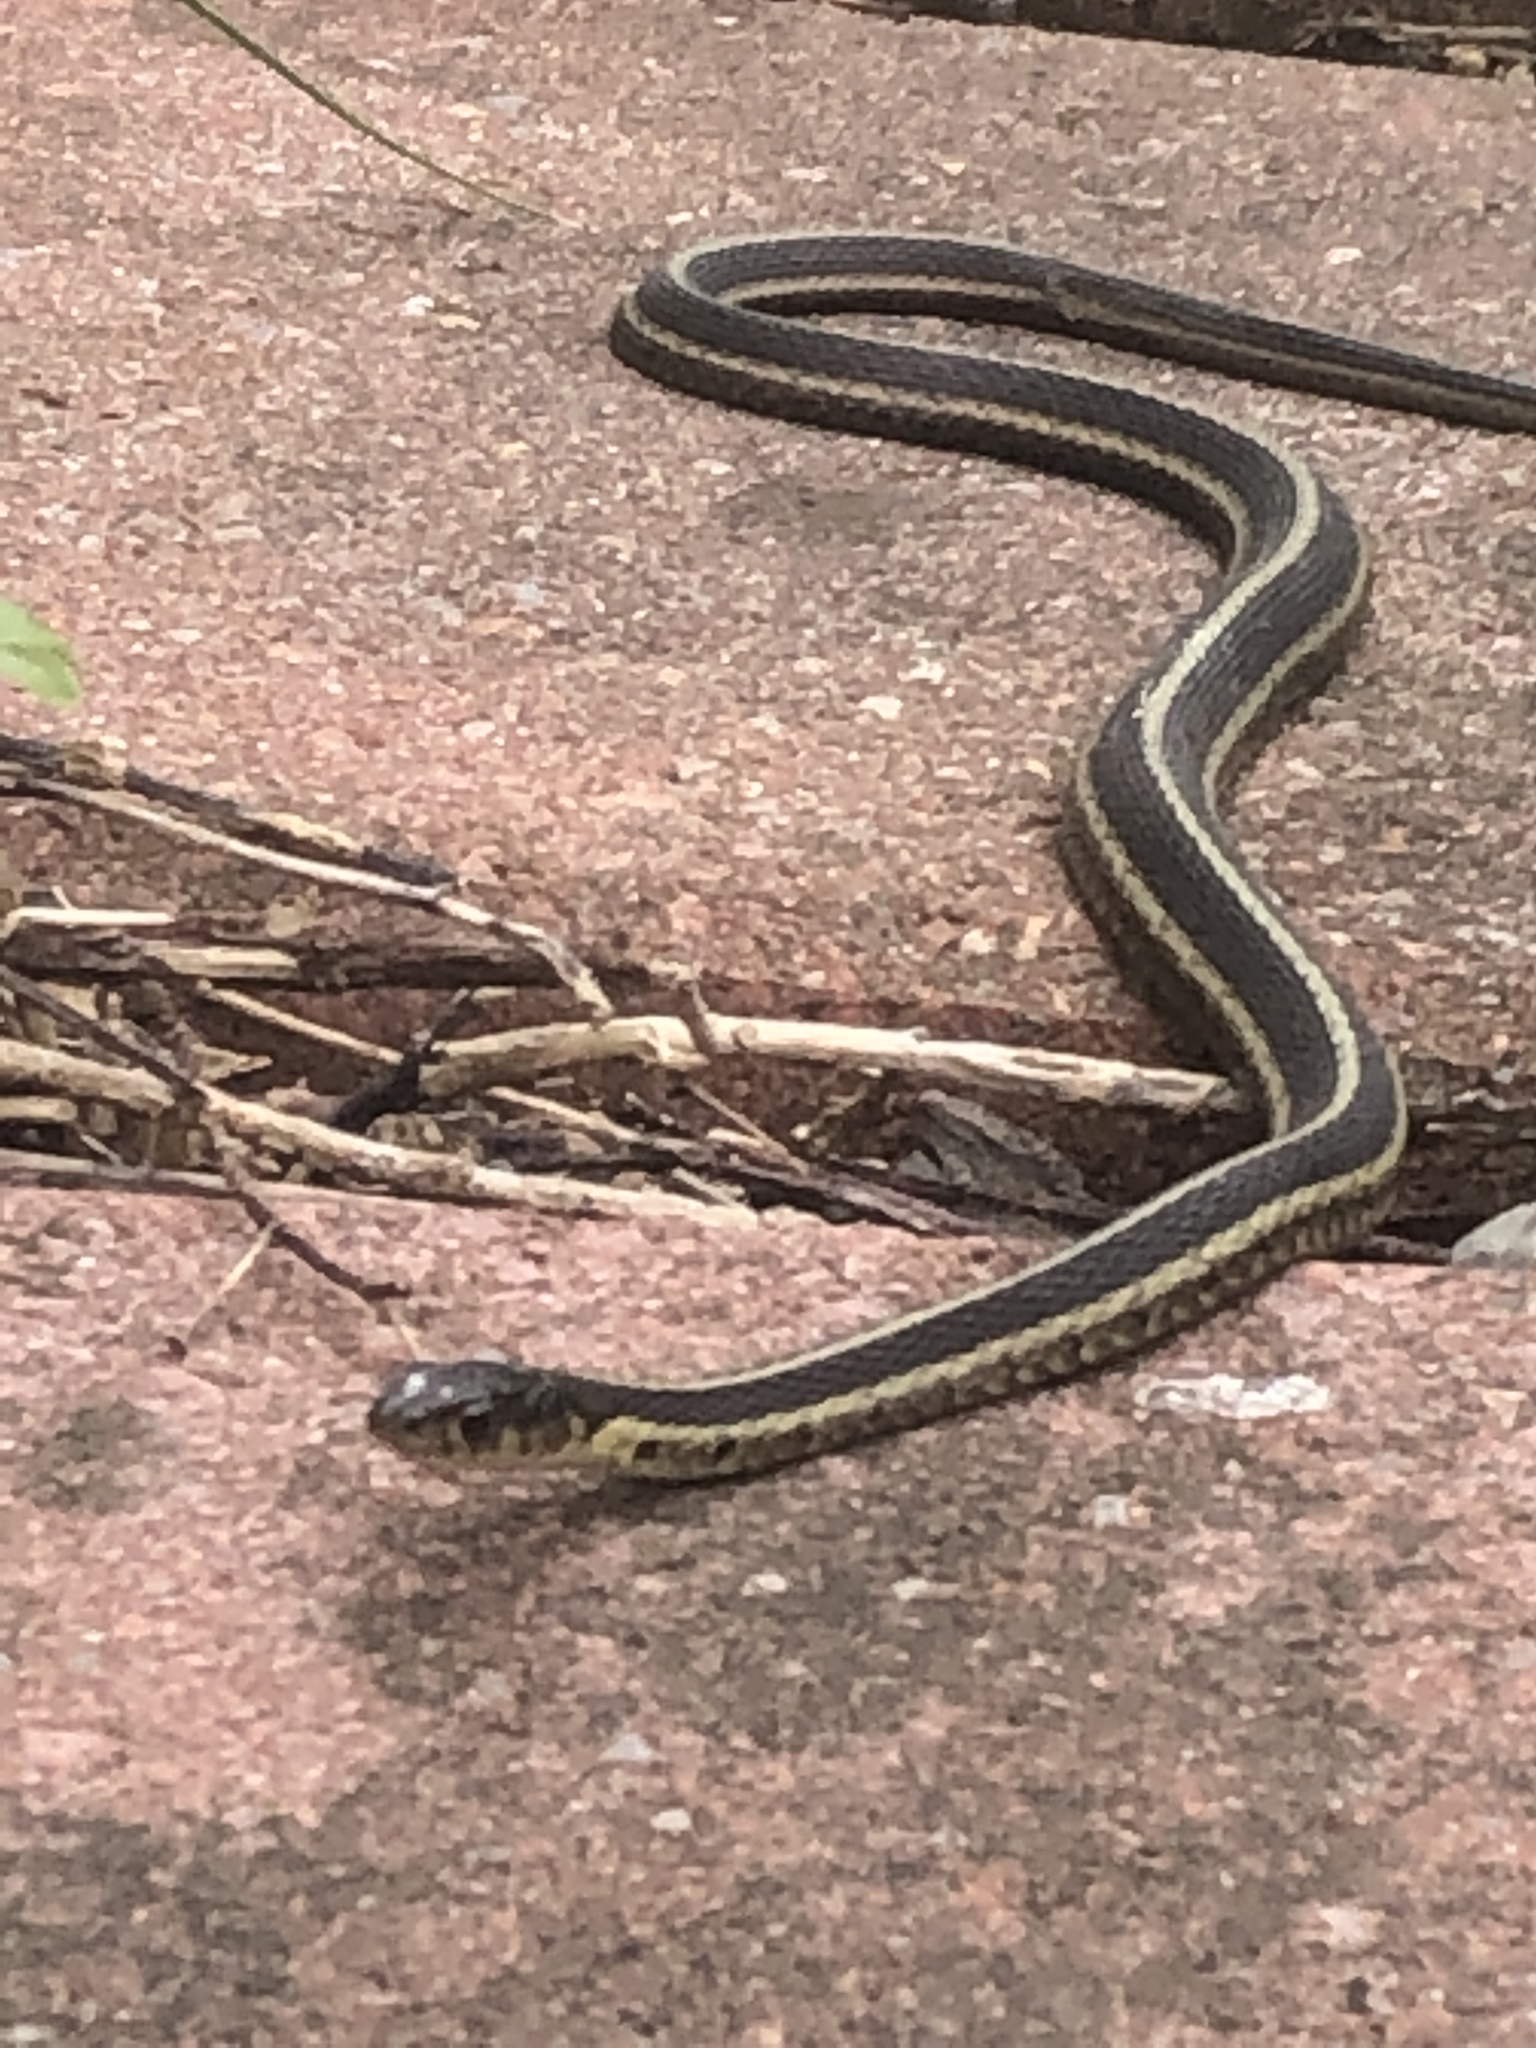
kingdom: Animalia
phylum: Chordata
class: Squamata
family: Colubridae
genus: Thamnophis
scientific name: Thamnophis sirtalis
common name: Common garter snake
